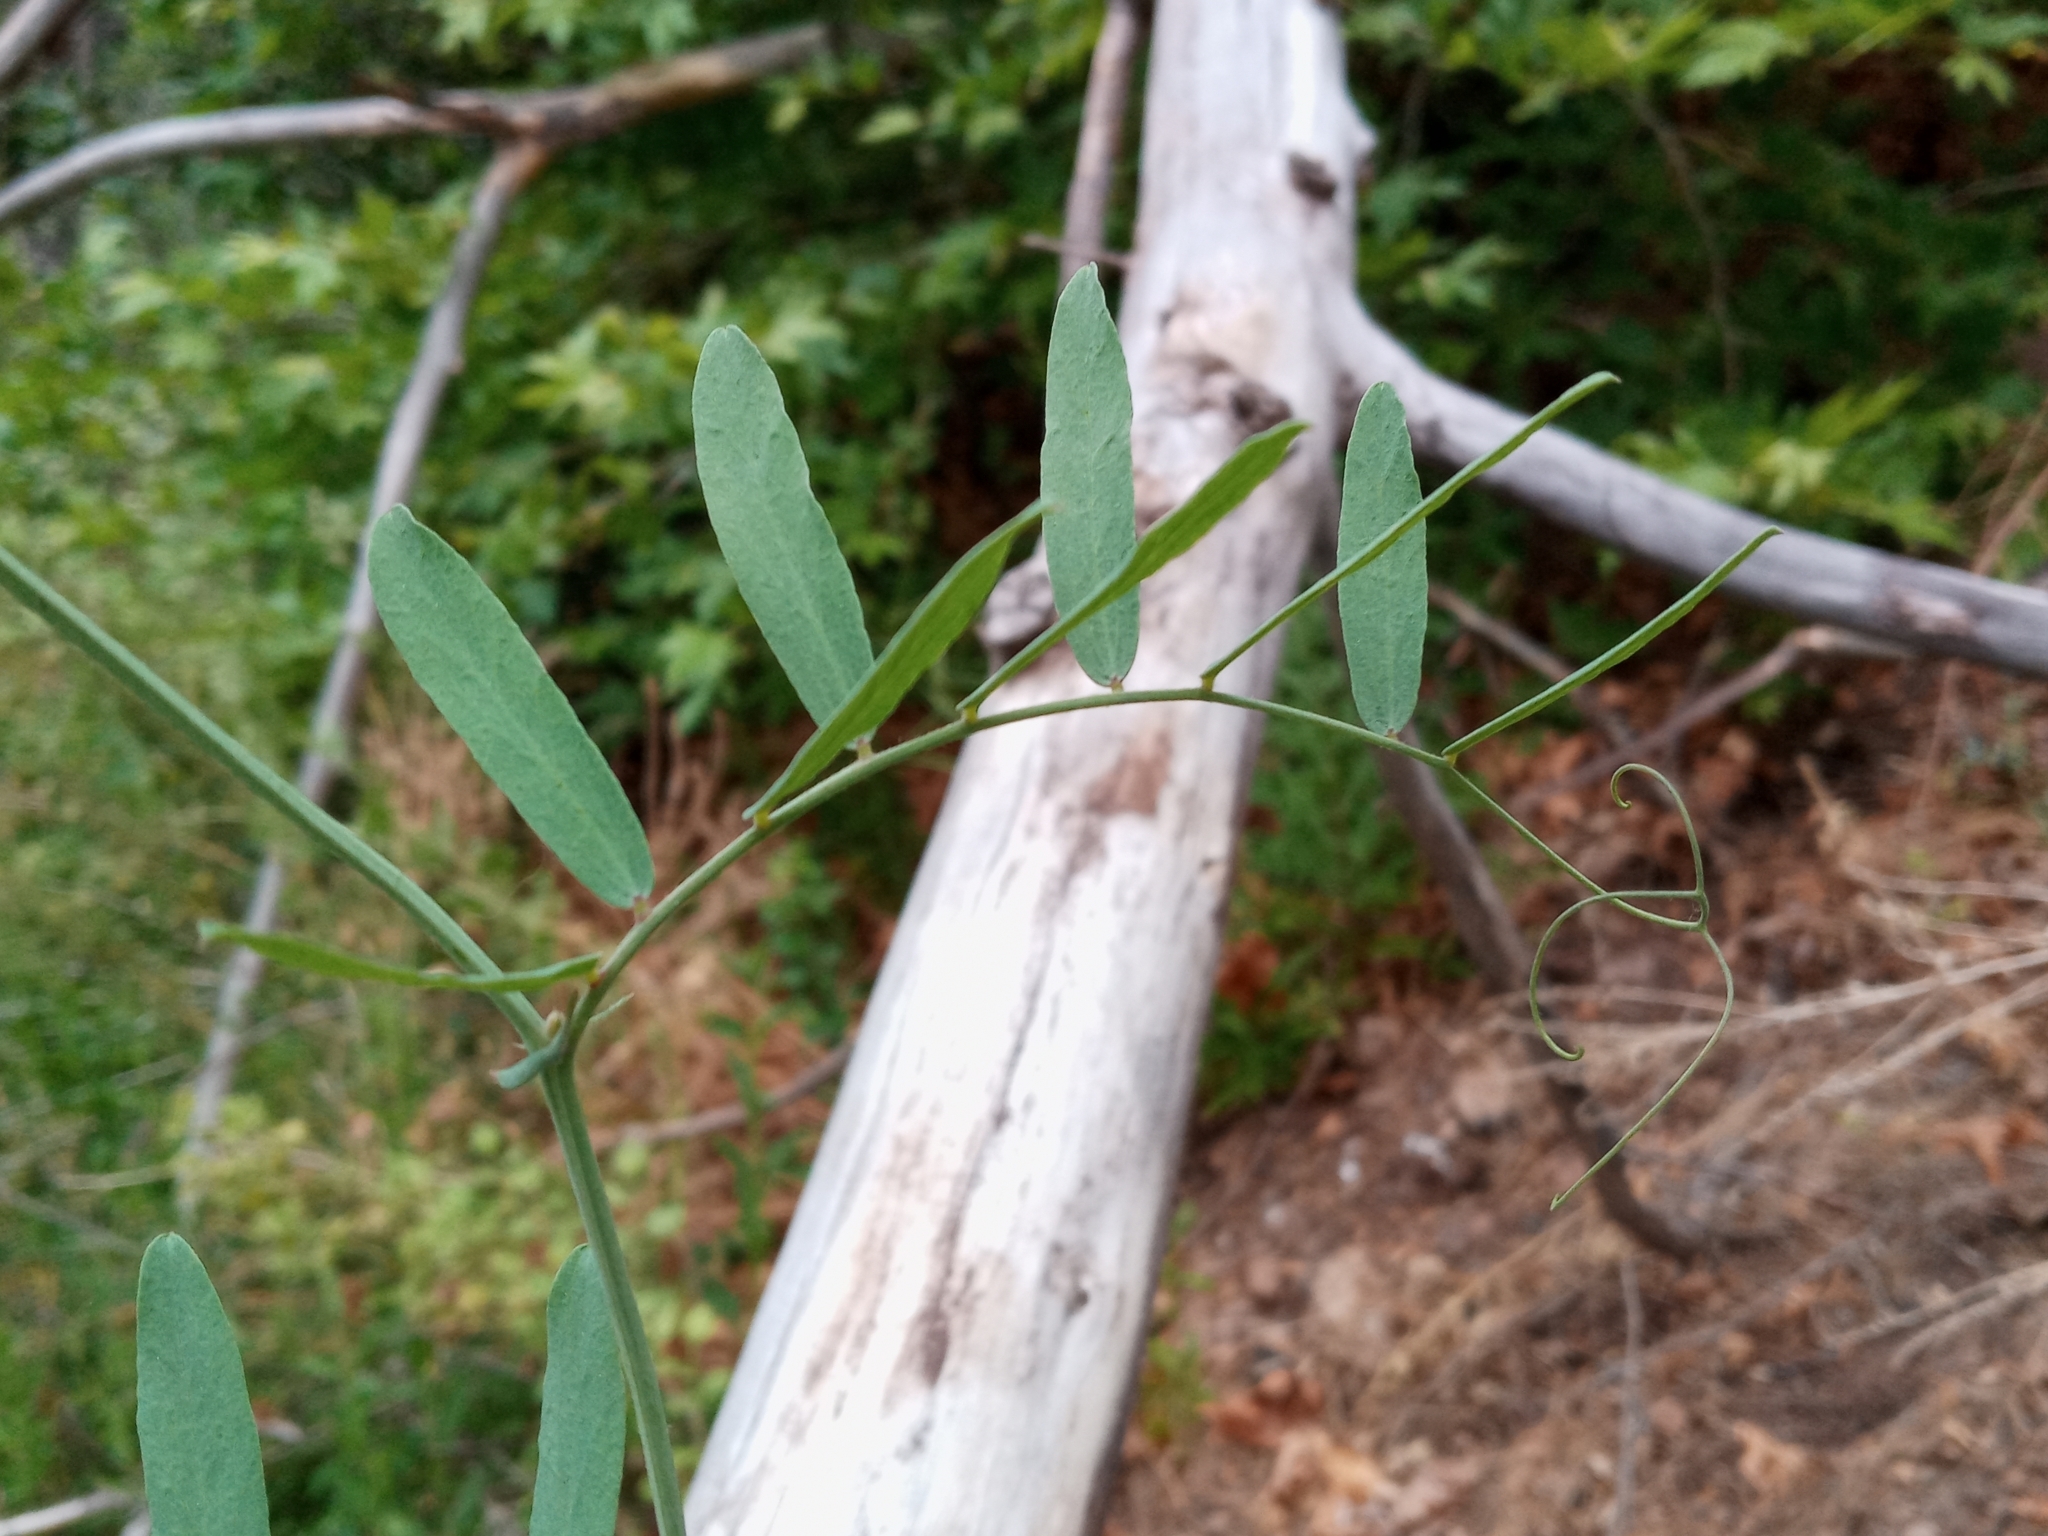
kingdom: Plantae
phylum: Tracheophyta
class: Magnoliopsida
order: Fabales
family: Fabaceae
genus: Lathyrus
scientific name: Lathyrus vestitus
